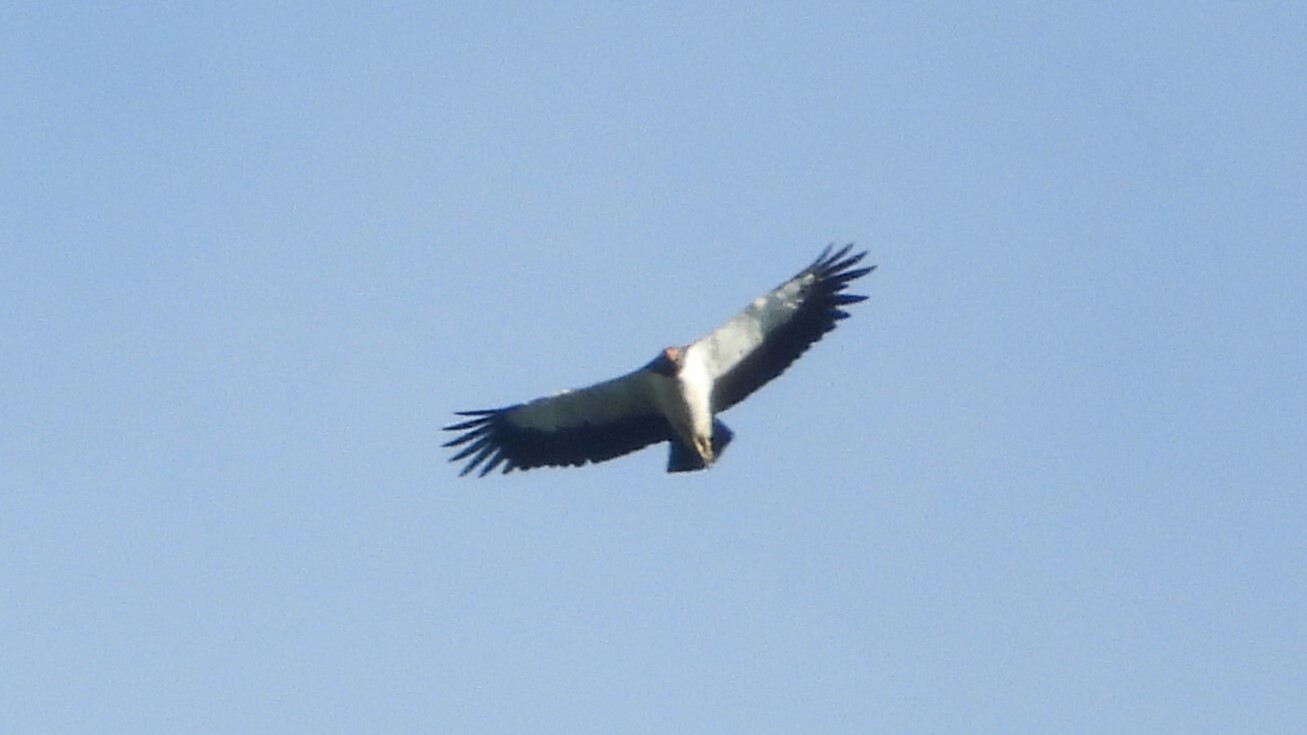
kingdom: Animalia
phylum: Chordata
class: Aves
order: Accipitriformes
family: Cathartidae
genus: Sarcoramphus
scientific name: Sarcoramphus papa
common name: King vulture
